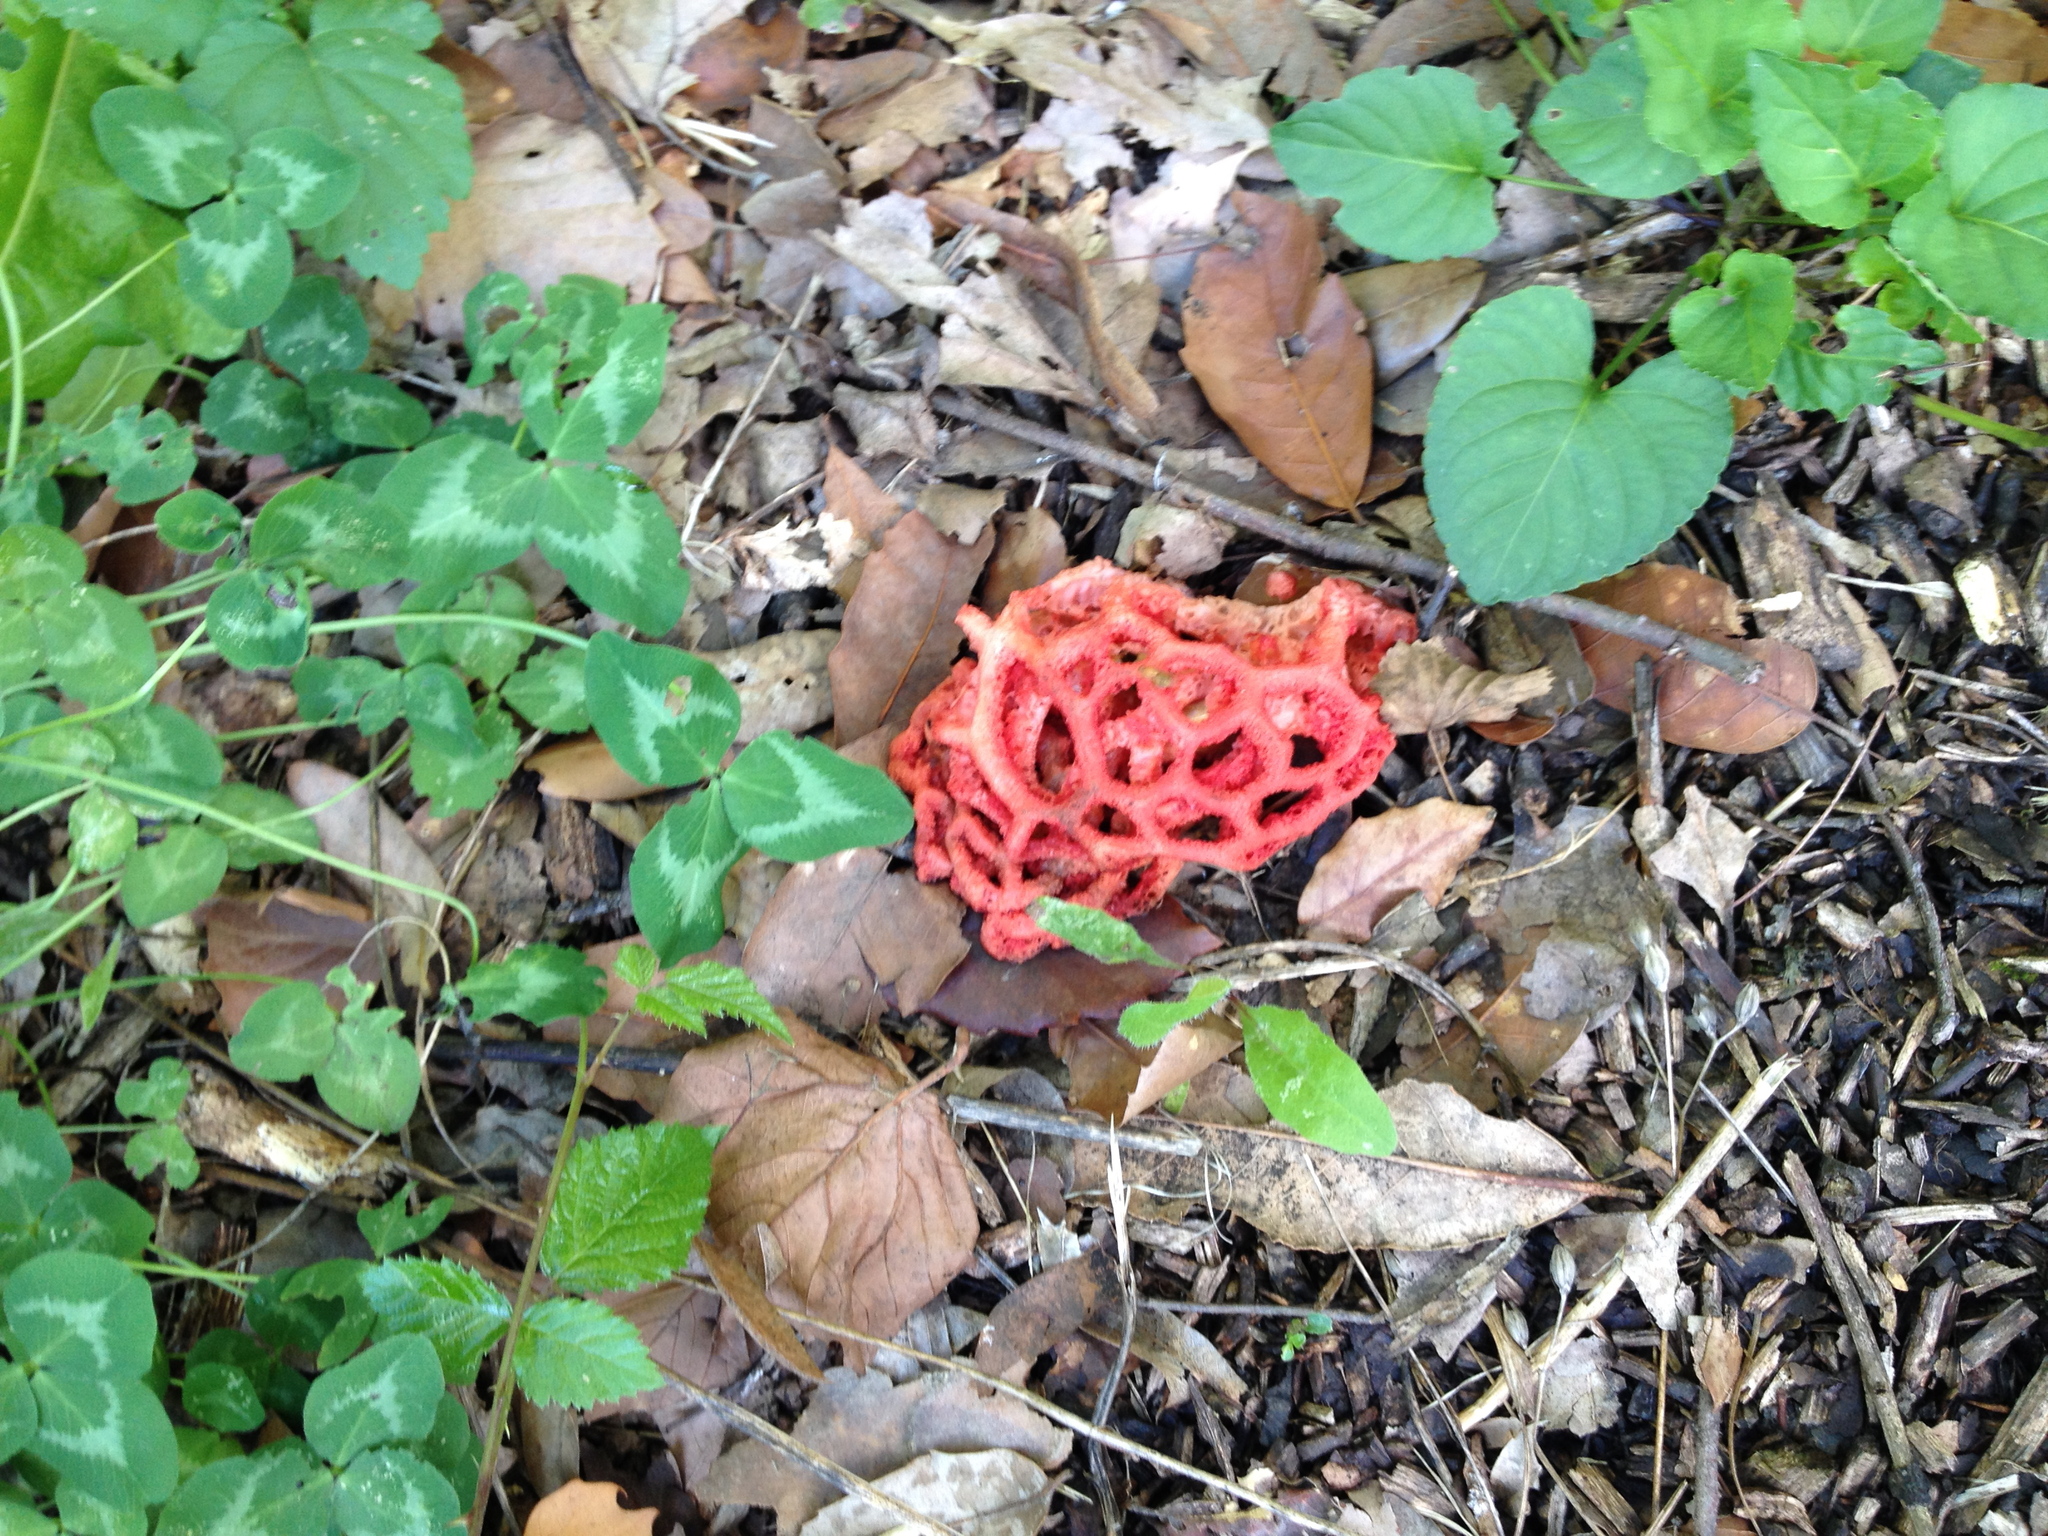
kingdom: Fungi
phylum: Basidiomycota
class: Agaricomycetes
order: Phallales
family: Phallaceae
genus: Clathrus
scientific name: Clathrus ruber
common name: Red cage
